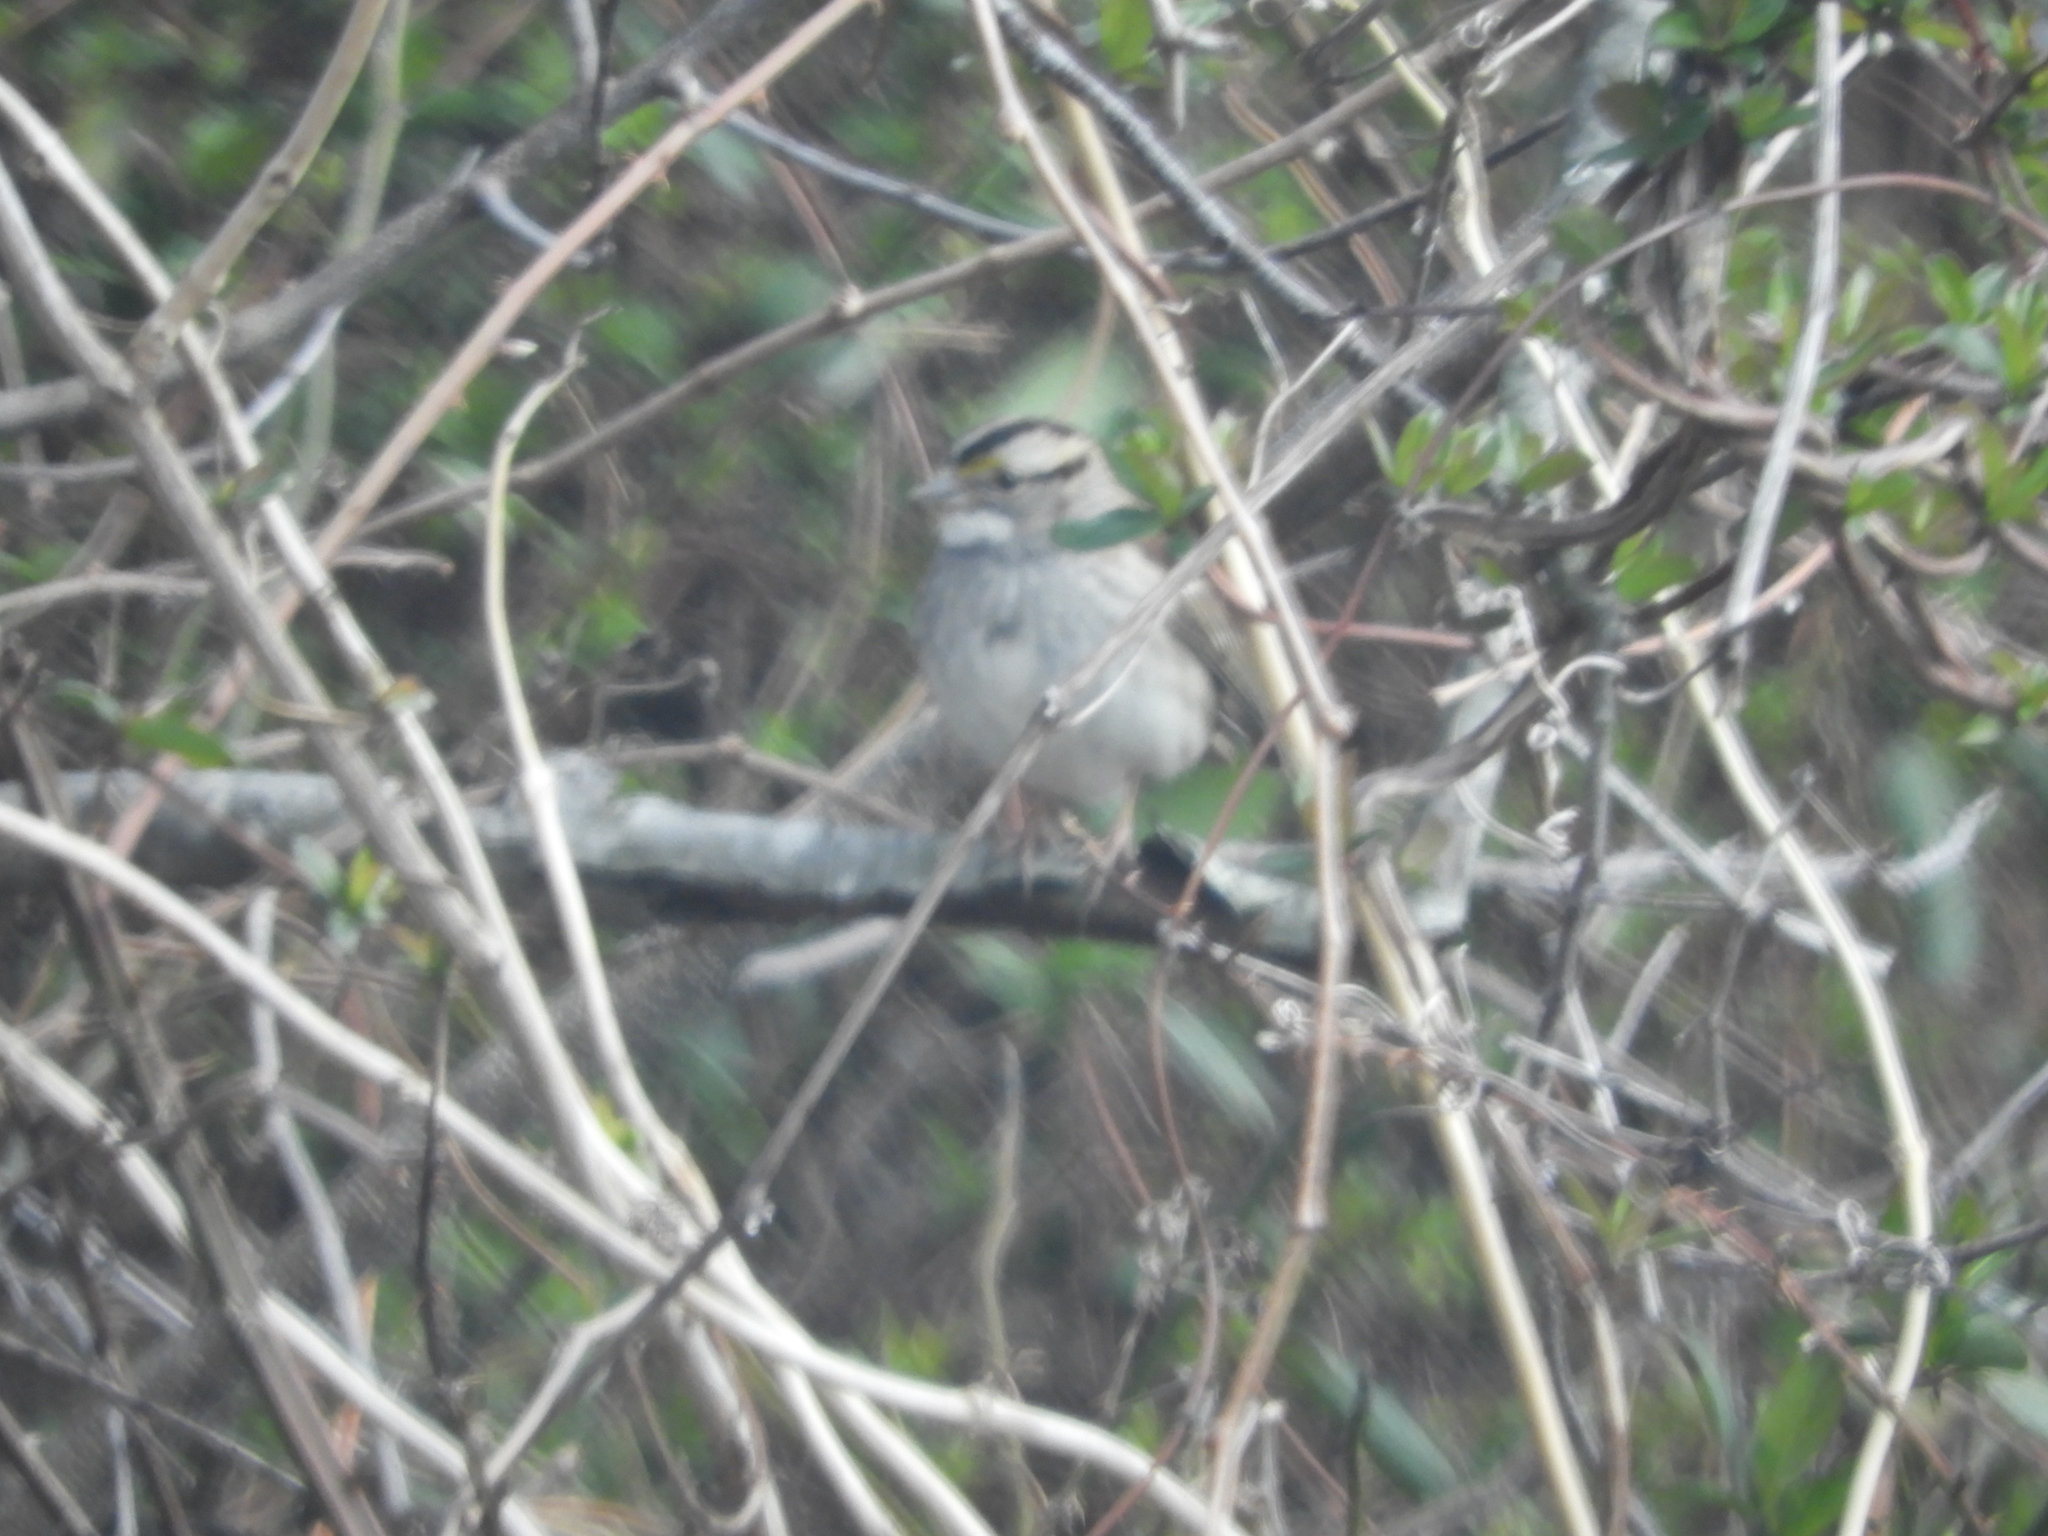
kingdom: Animalia
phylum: Chordata
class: Aves
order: Passeriformes
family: Passerellidae
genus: Zonotrichia
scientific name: Zonotrichia albicollis
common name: White-throated sparrow
